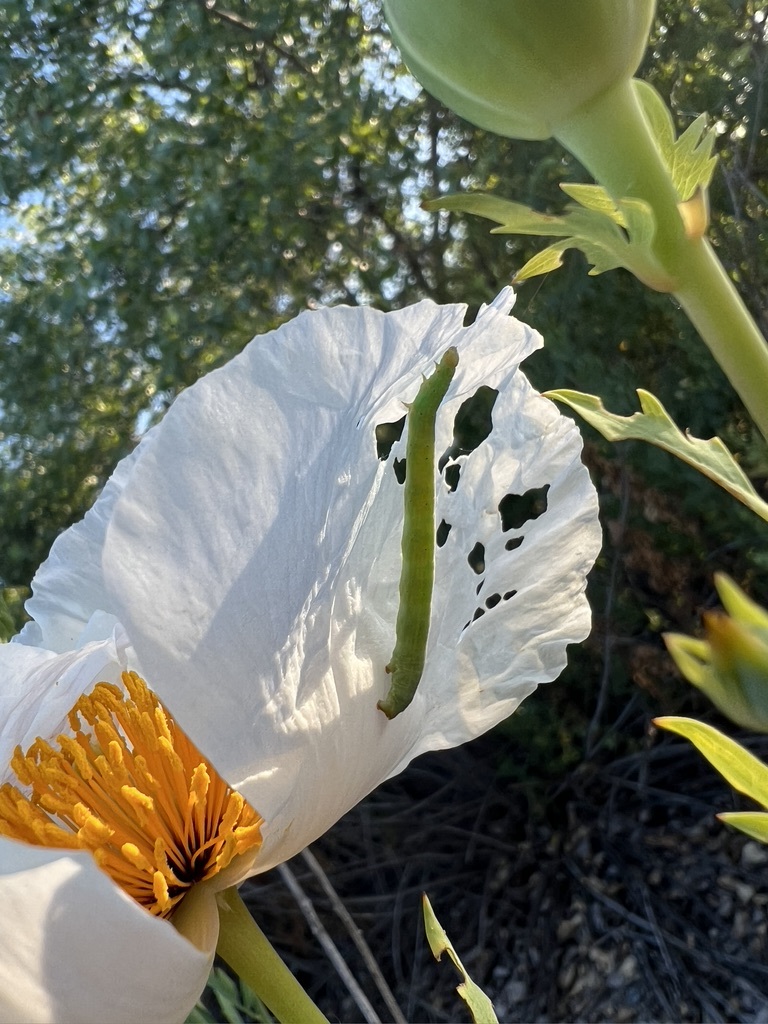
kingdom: Plantae
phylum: Tracheophyta
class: Magnoliopsida
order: Ranunculales
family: Papaveraceae
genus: Romneya
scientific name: Romneya coulteri
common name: California tree-poppy
